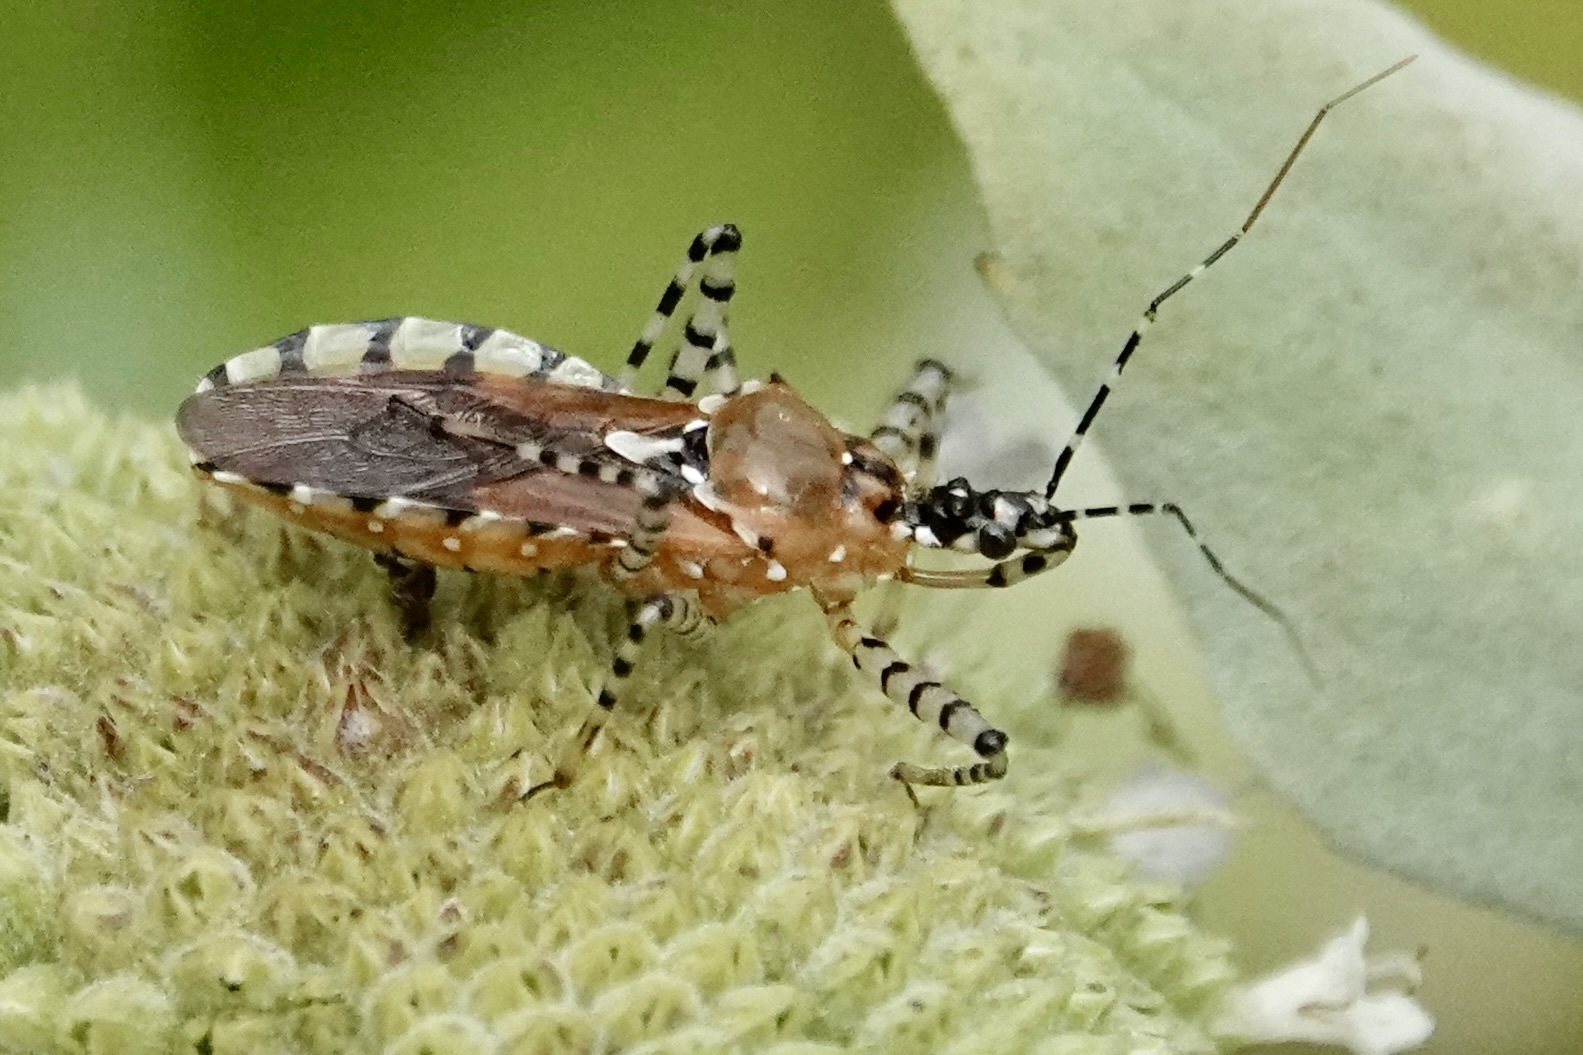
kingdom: Animalia
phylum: Arthropoda
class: Insecta
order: Hemiptera
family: Reduviidae
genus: Pselliopus
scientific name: Pselliopus cinctus
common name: Ringed assassin bug
